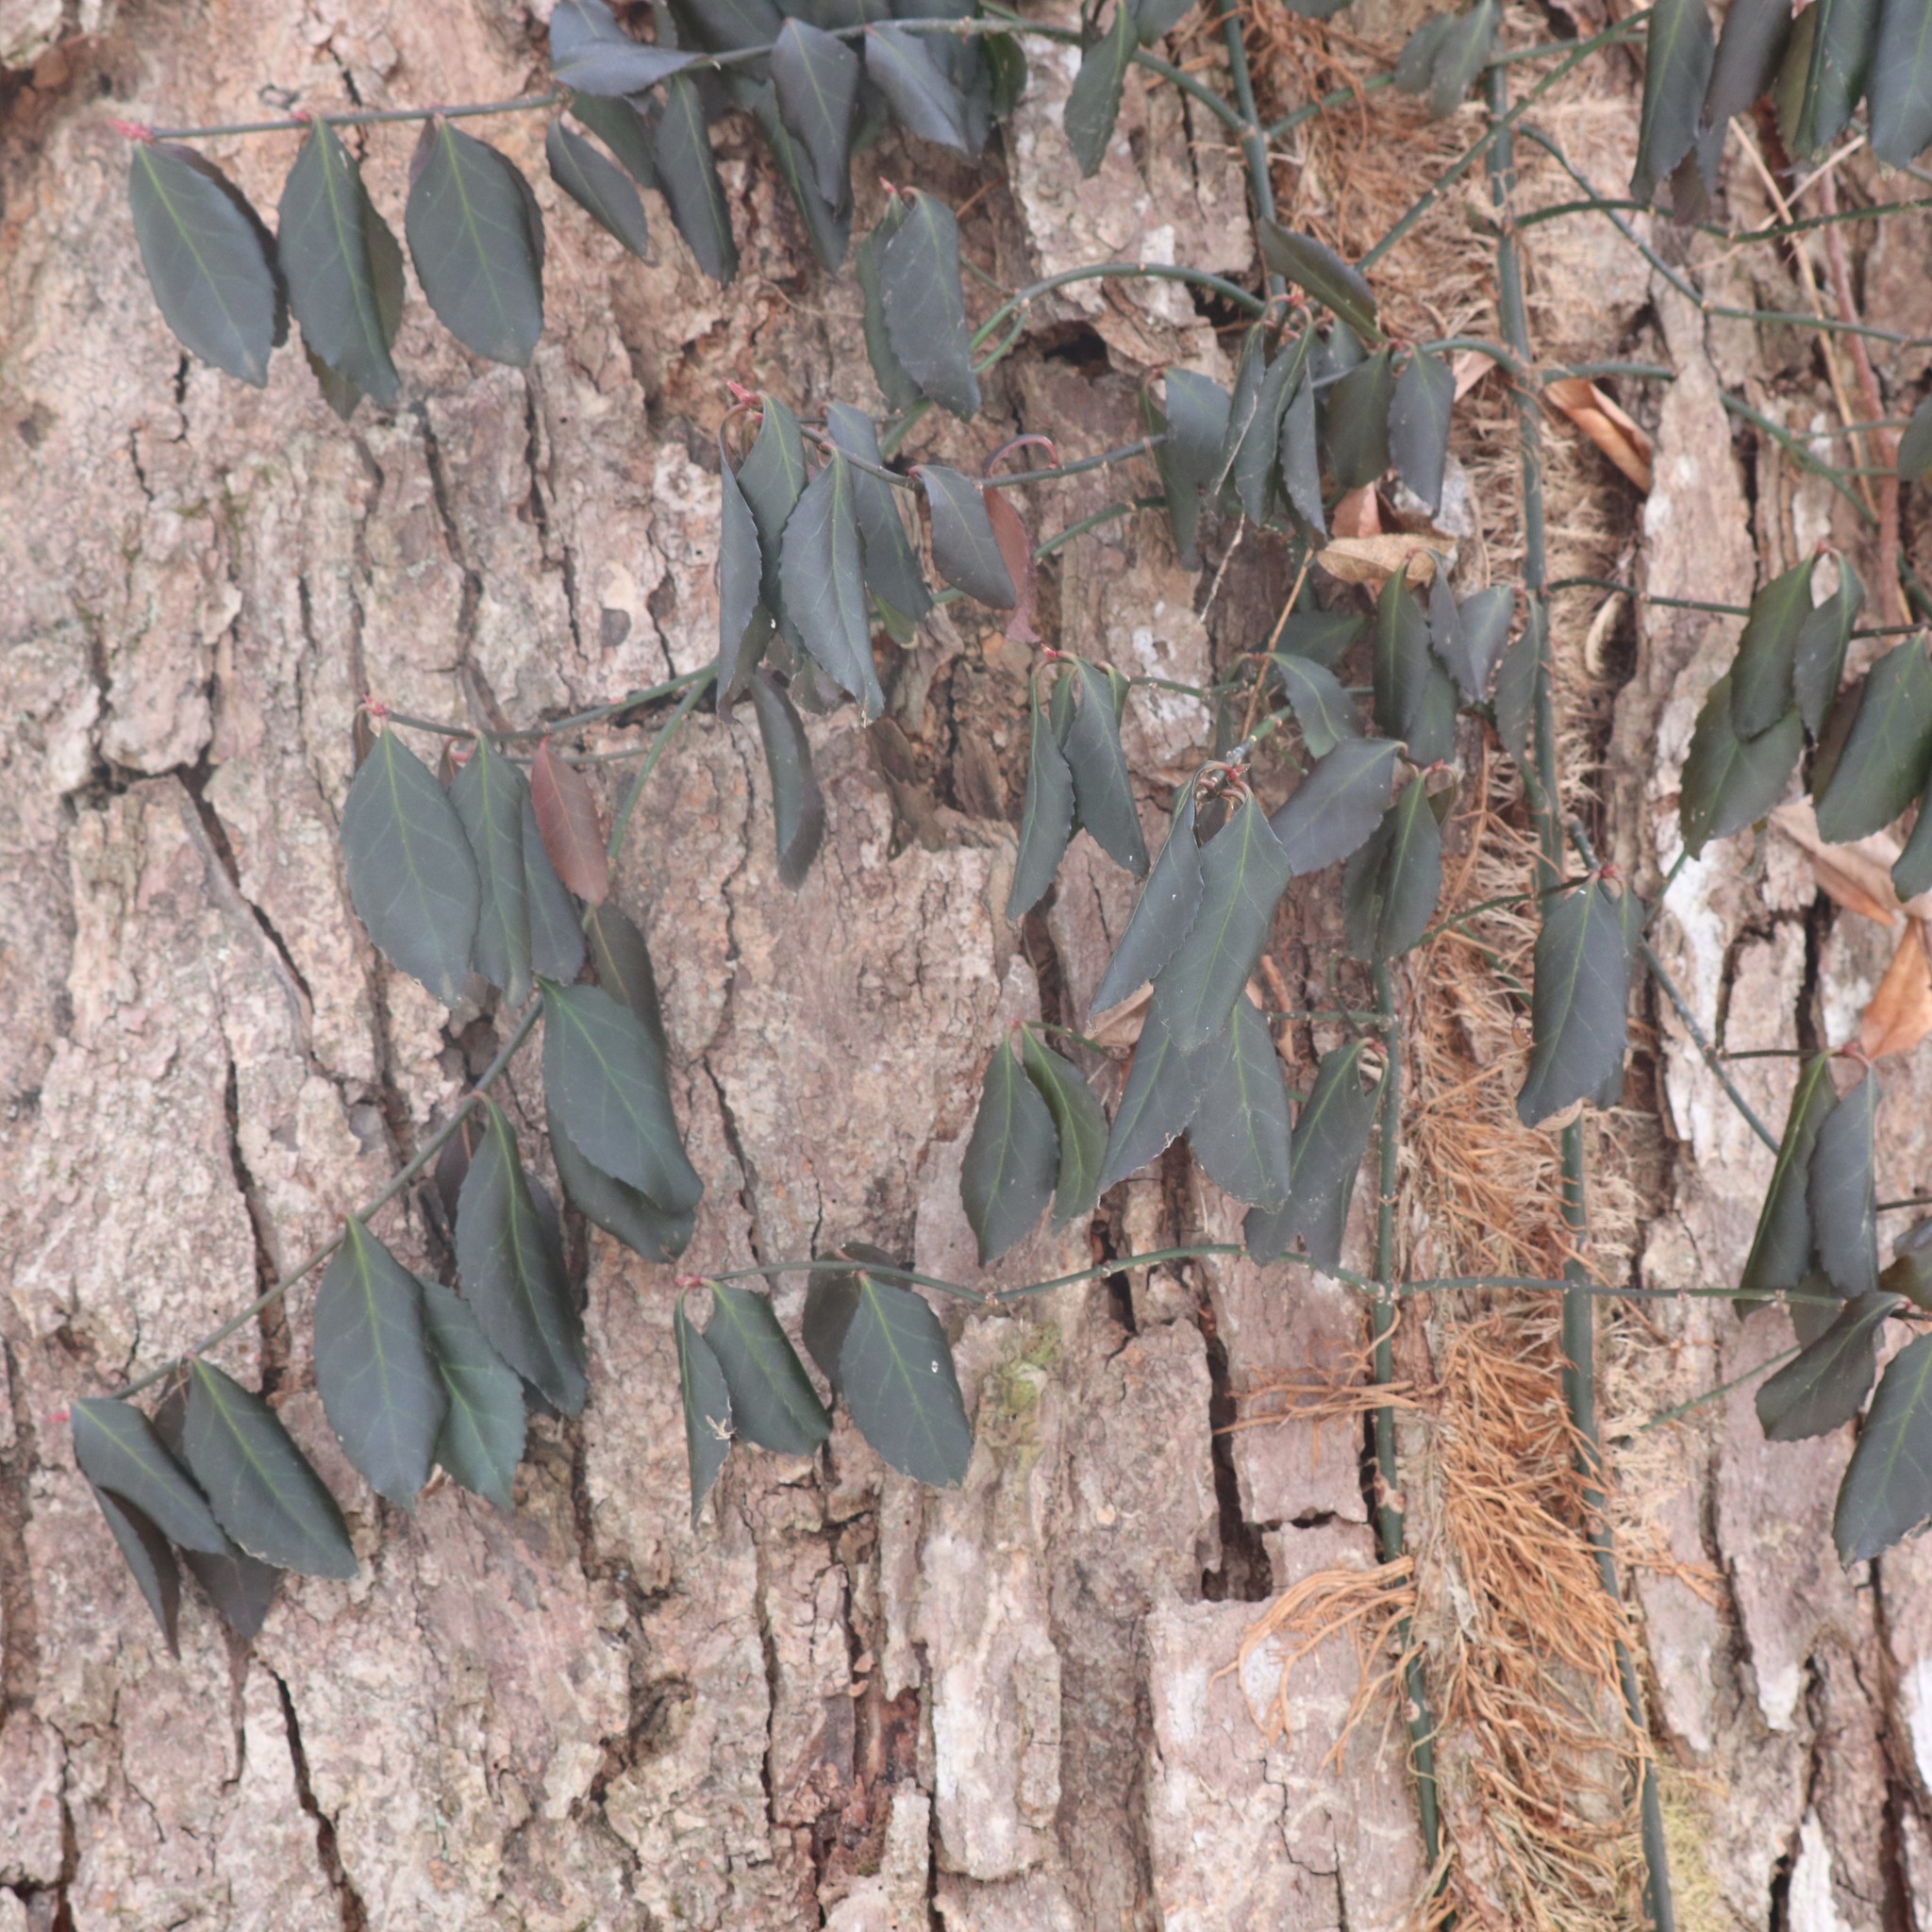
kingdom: Plantae
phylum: Tracheophyta
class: Magnoliopsida
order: Celastrales
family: Celastraceae
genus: Euonymus
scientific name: Euonymus fortunei
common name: Climbing euonymus
